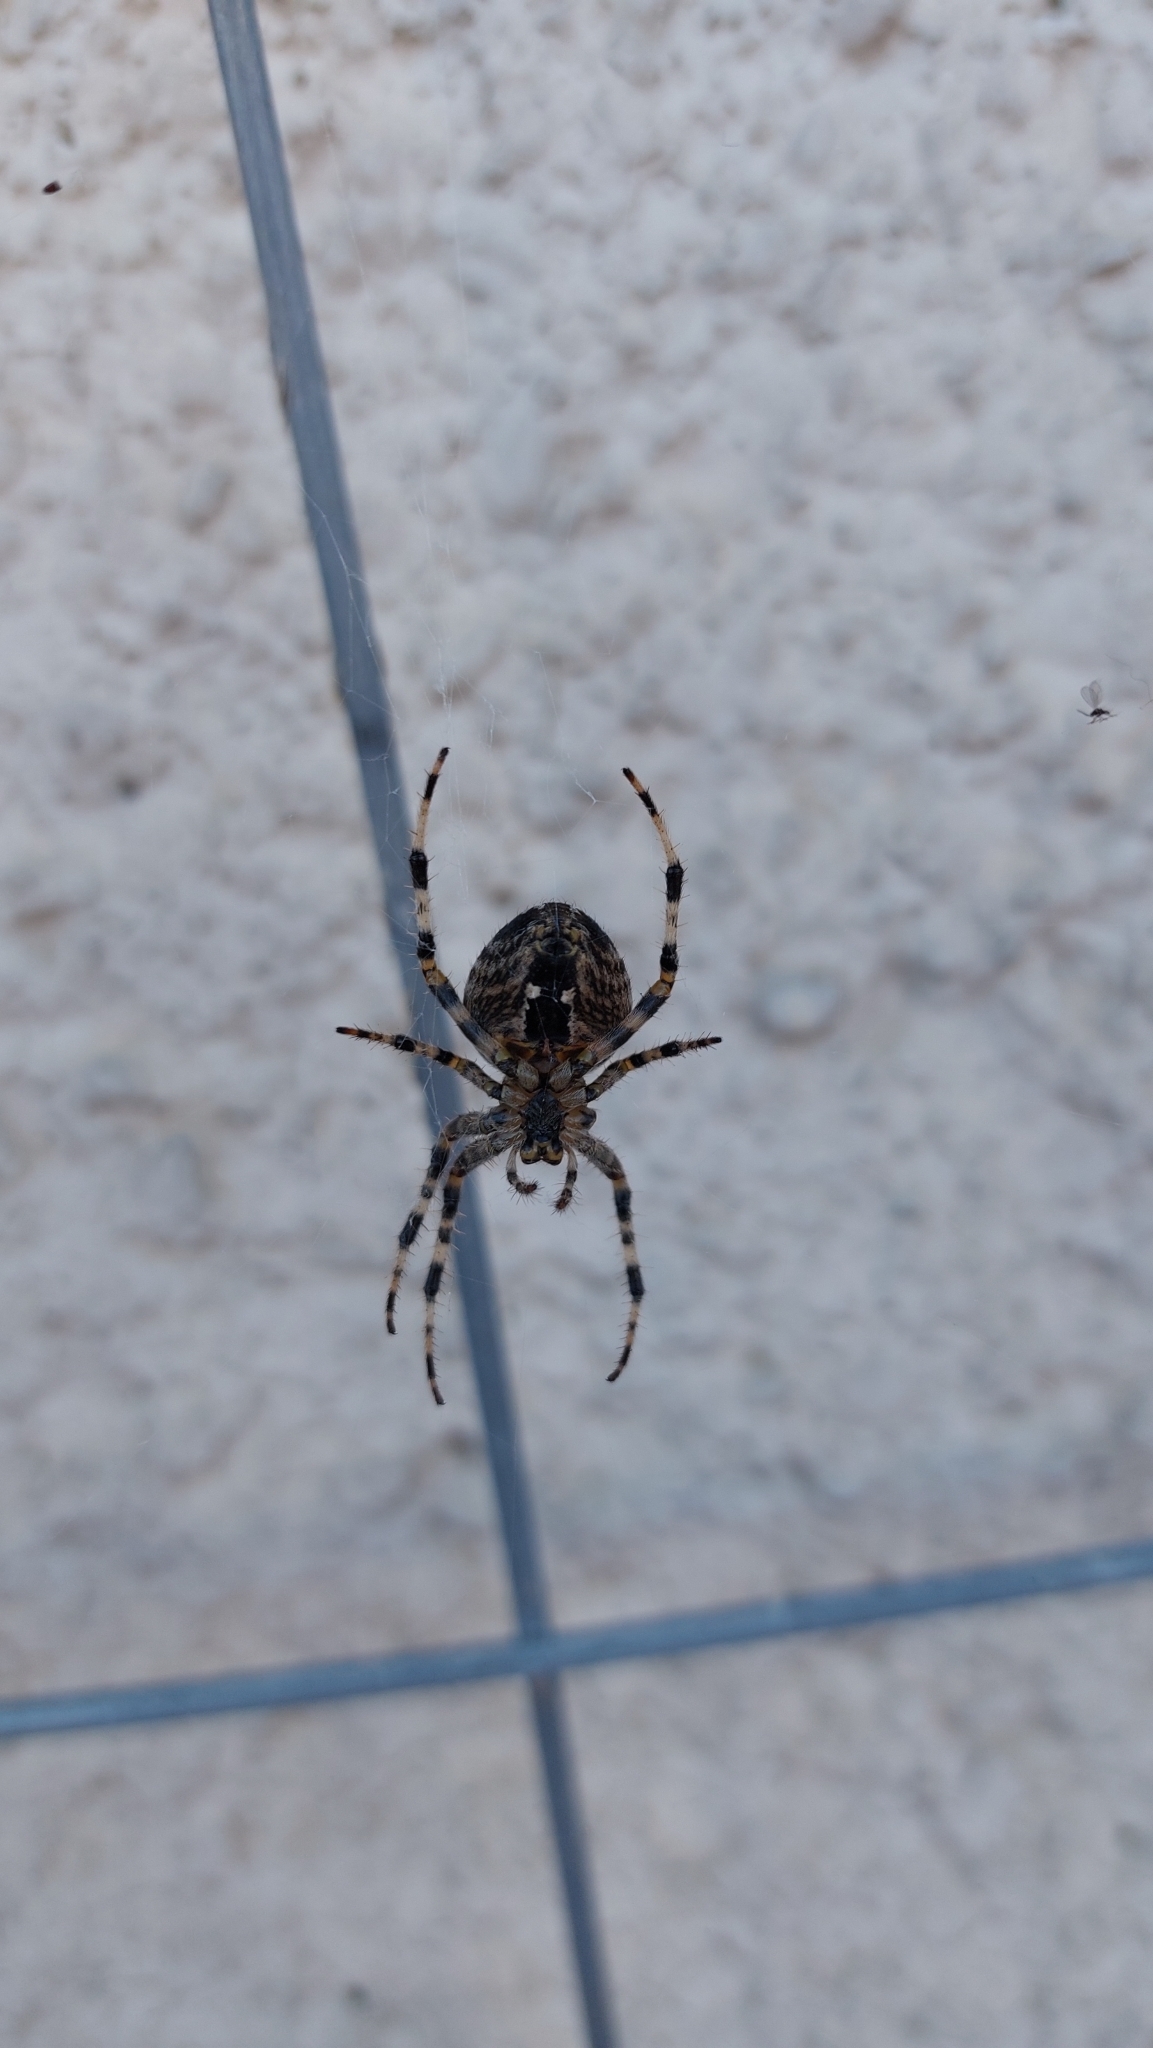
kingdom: Animalia
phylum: Arthropoda
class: Arachnida
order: Araneae
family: Araneidae
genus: Araneus
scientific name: Araneus diadematus
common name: Cross orbweaver
